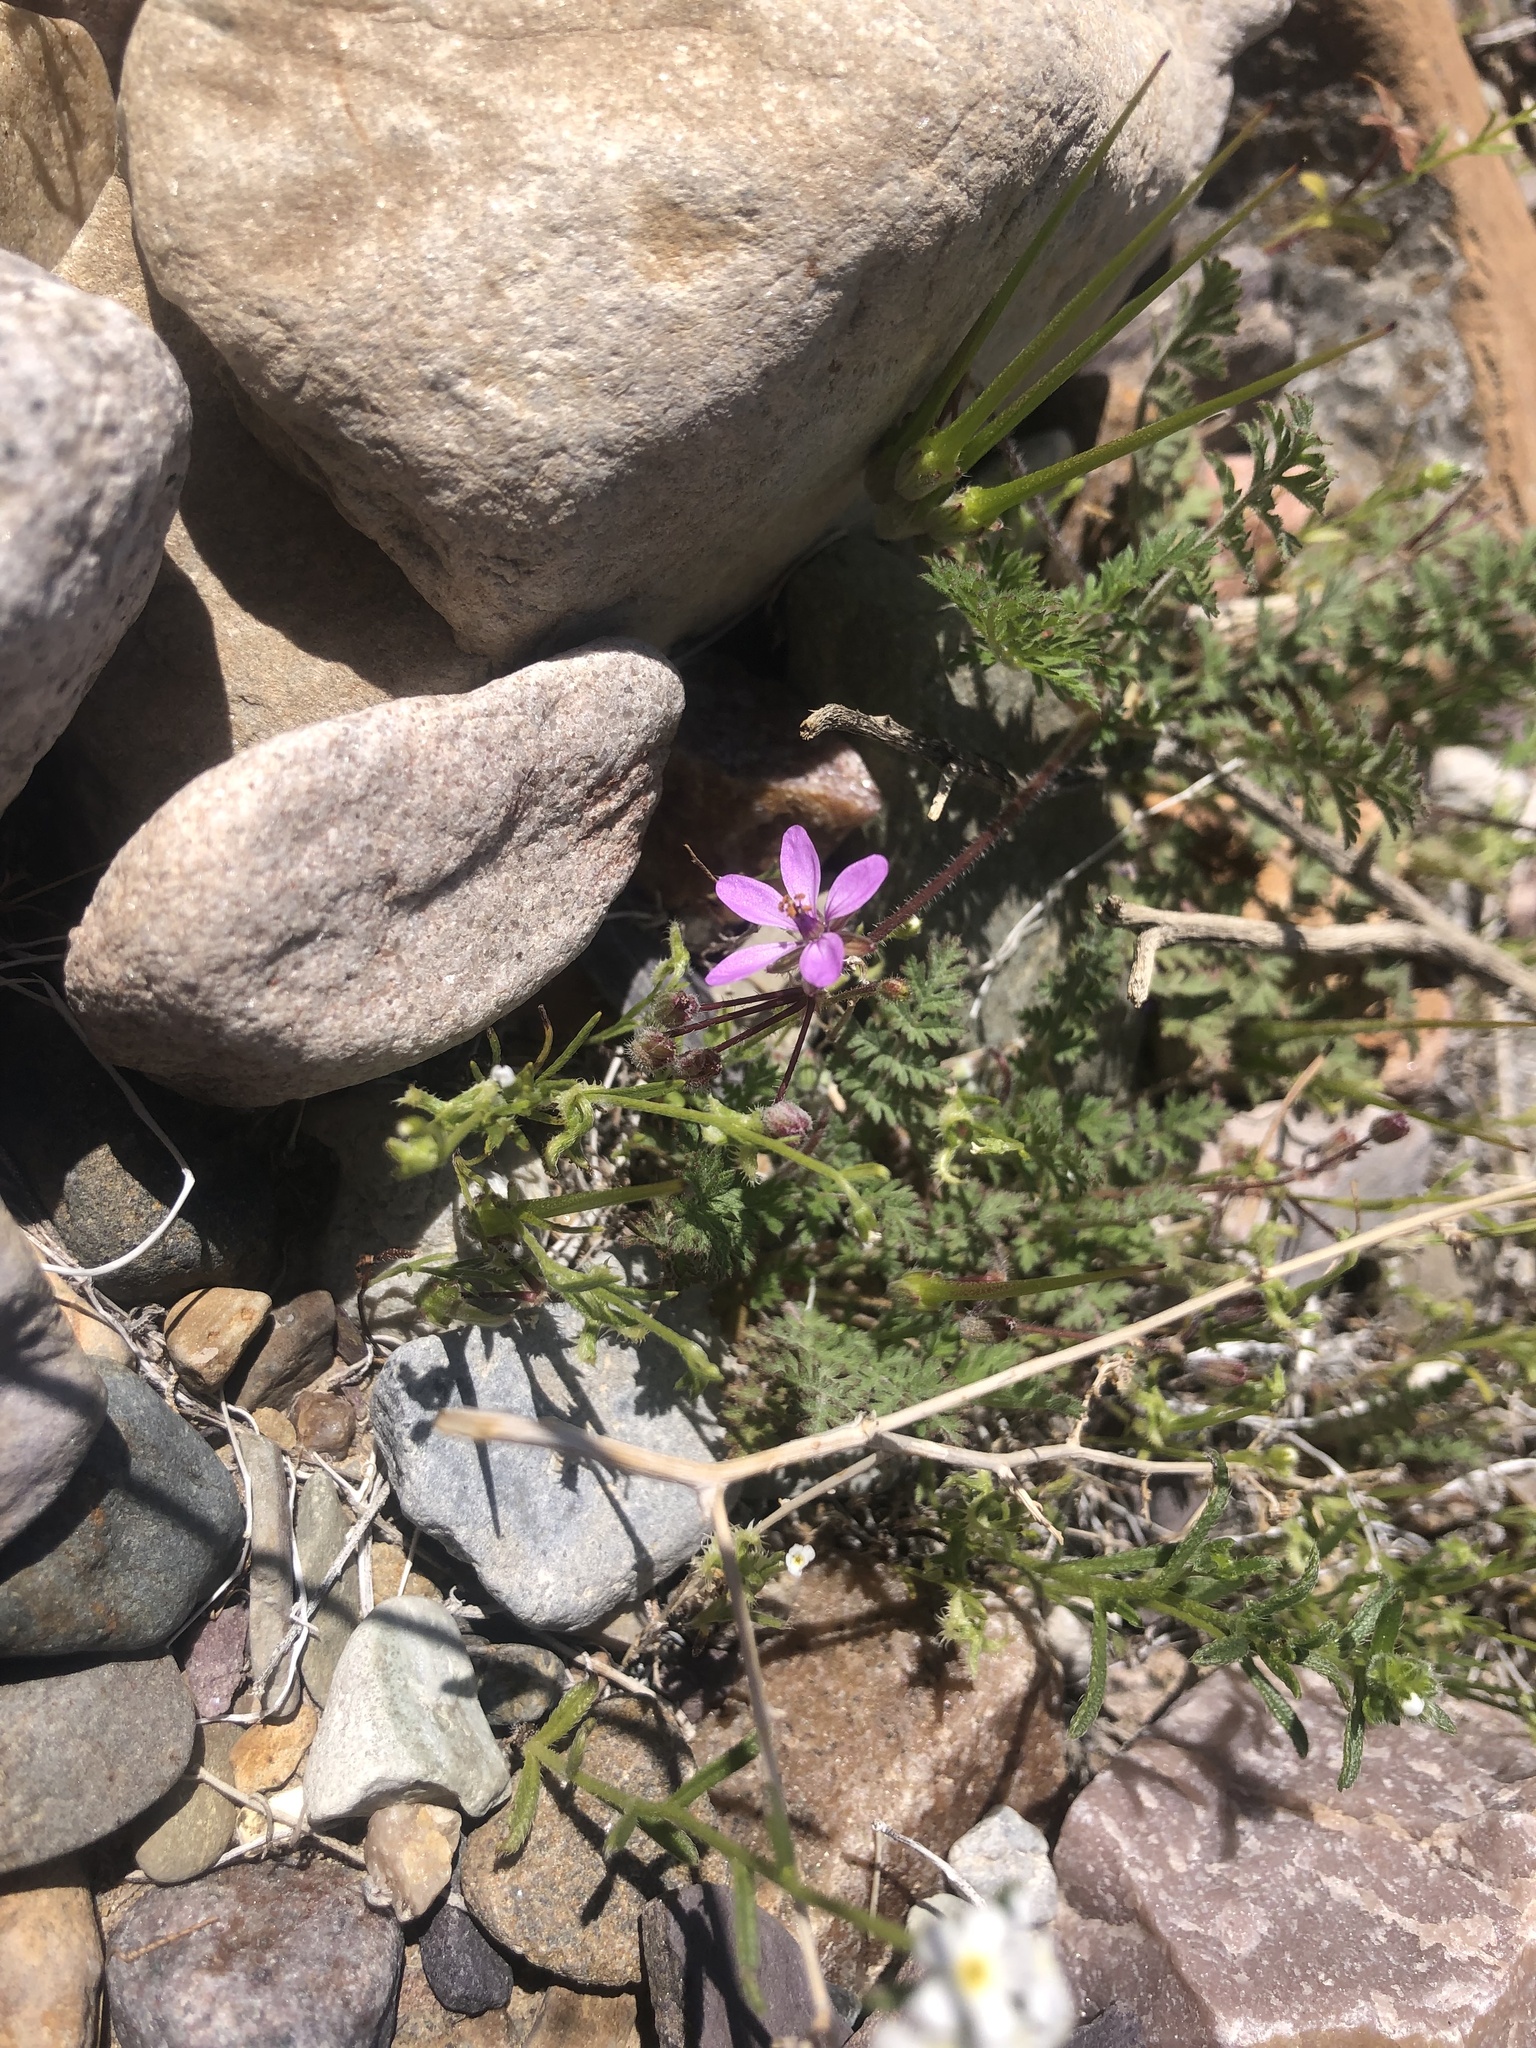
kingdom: Plantae
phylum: Tracheophyta
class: Magnoliopsida
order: Geraniales
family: Geraniaceae
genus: Erodium
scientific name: Erodium cicutarium
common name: Common stork's-bill
